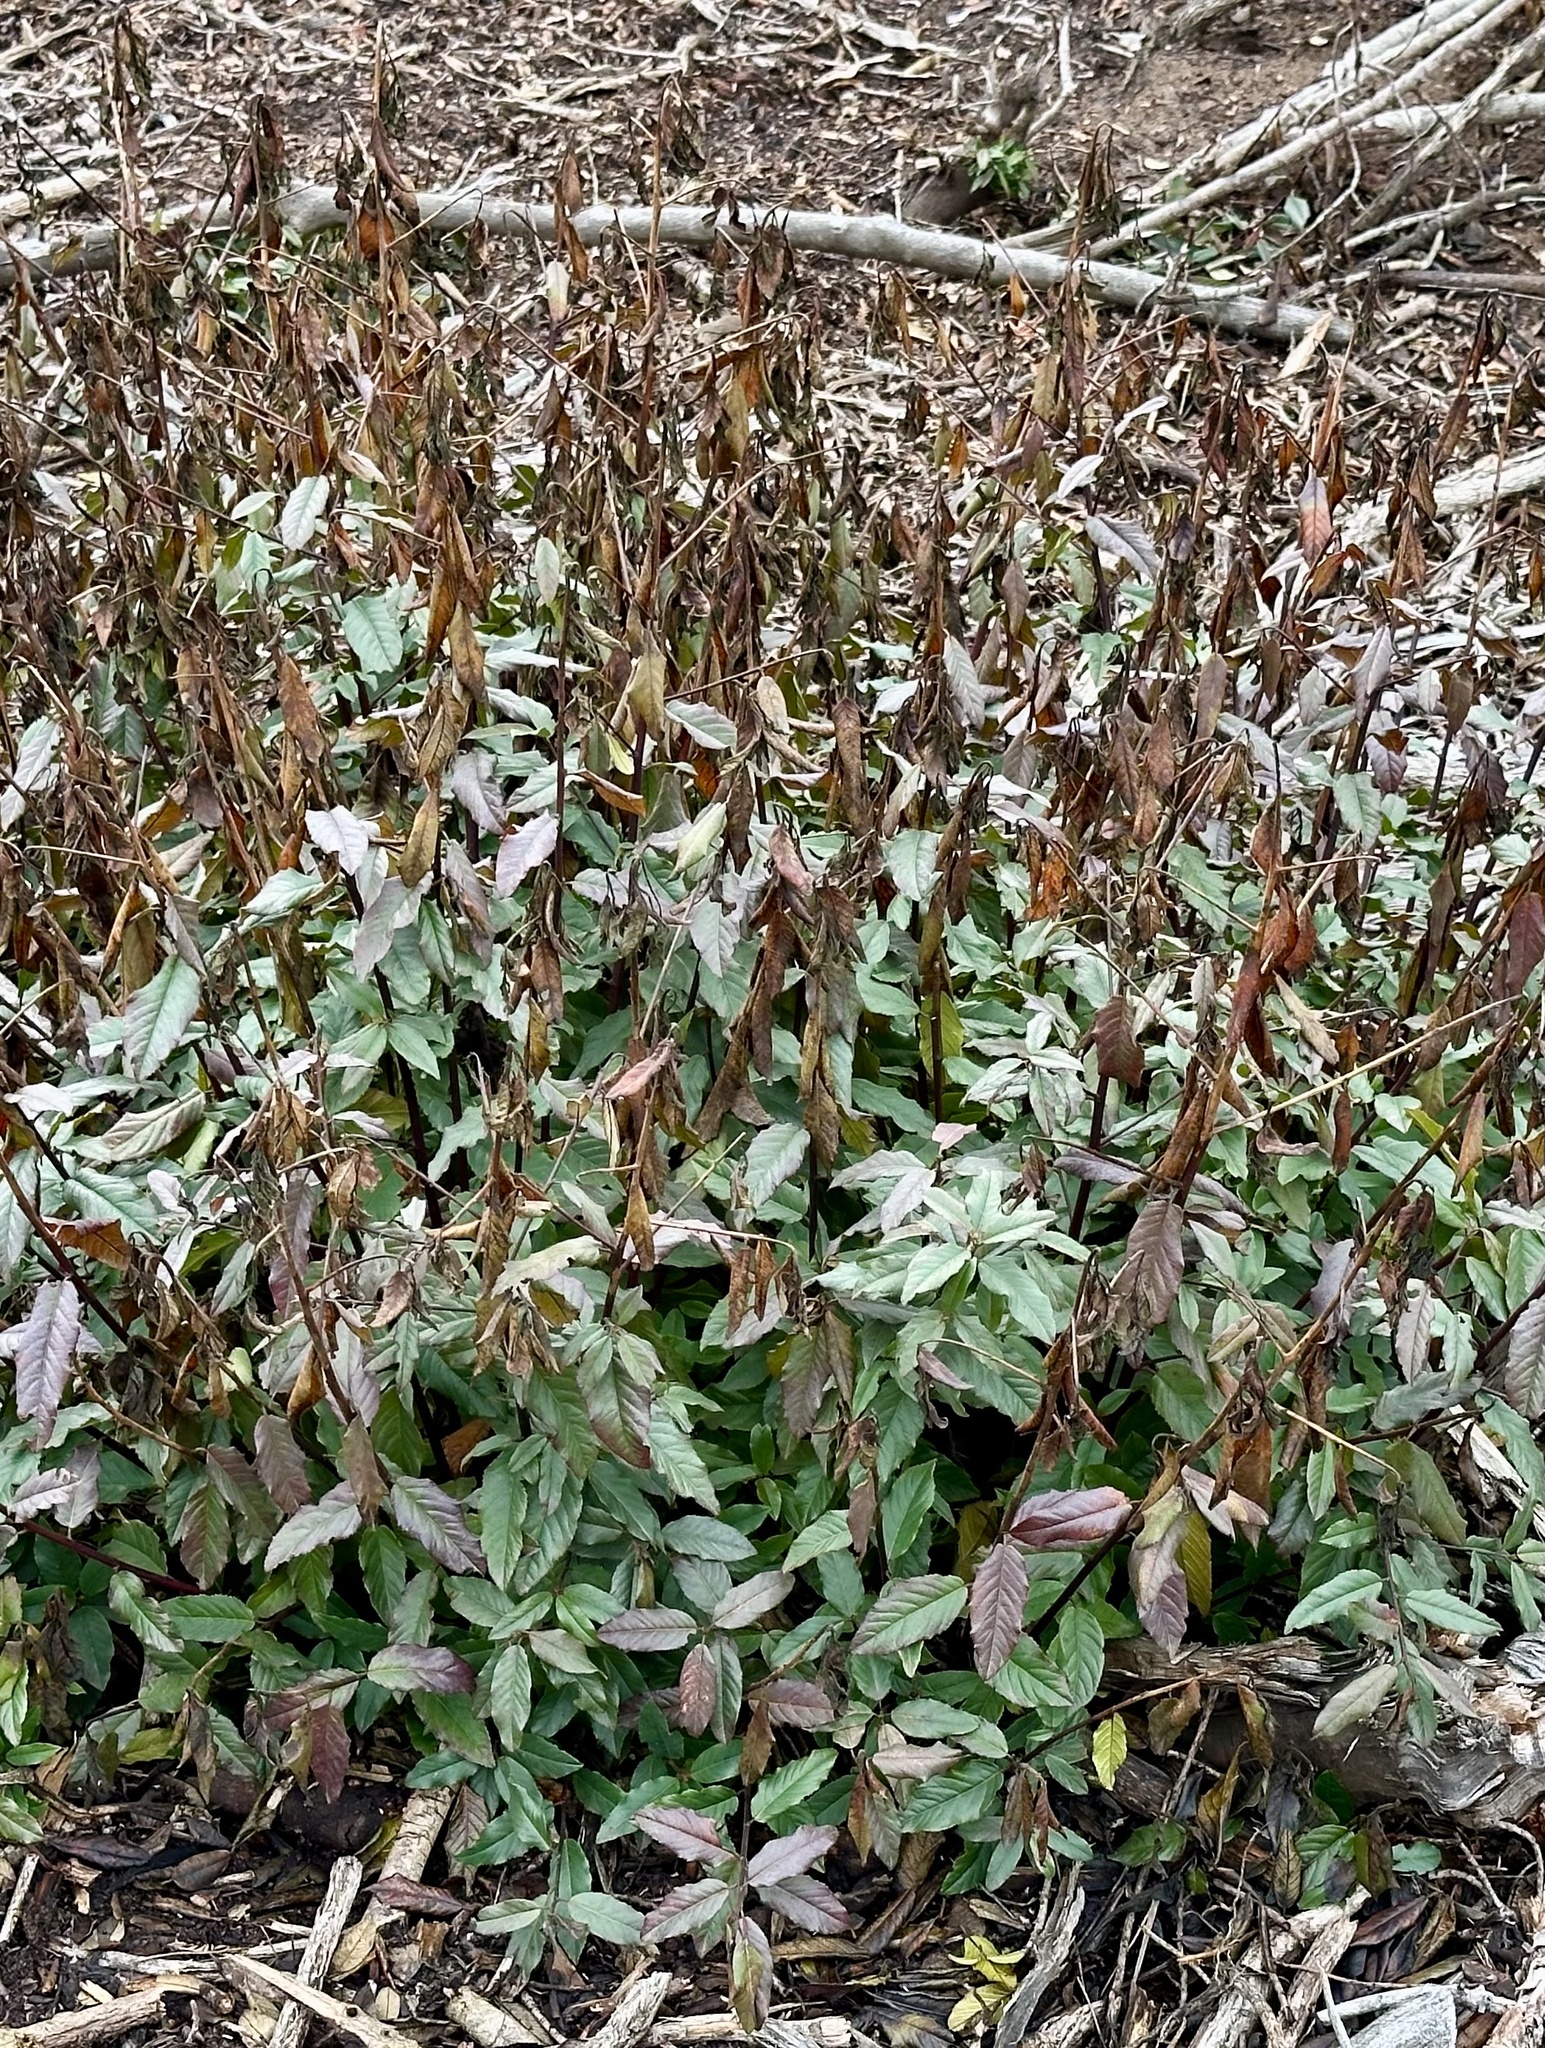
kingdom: Plantae
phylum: Tracheophyta
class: Magnoliopsida
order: Rosales
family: Rhamnaceae
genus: Frangula
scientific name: Frangula californica
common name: California buckthorn
